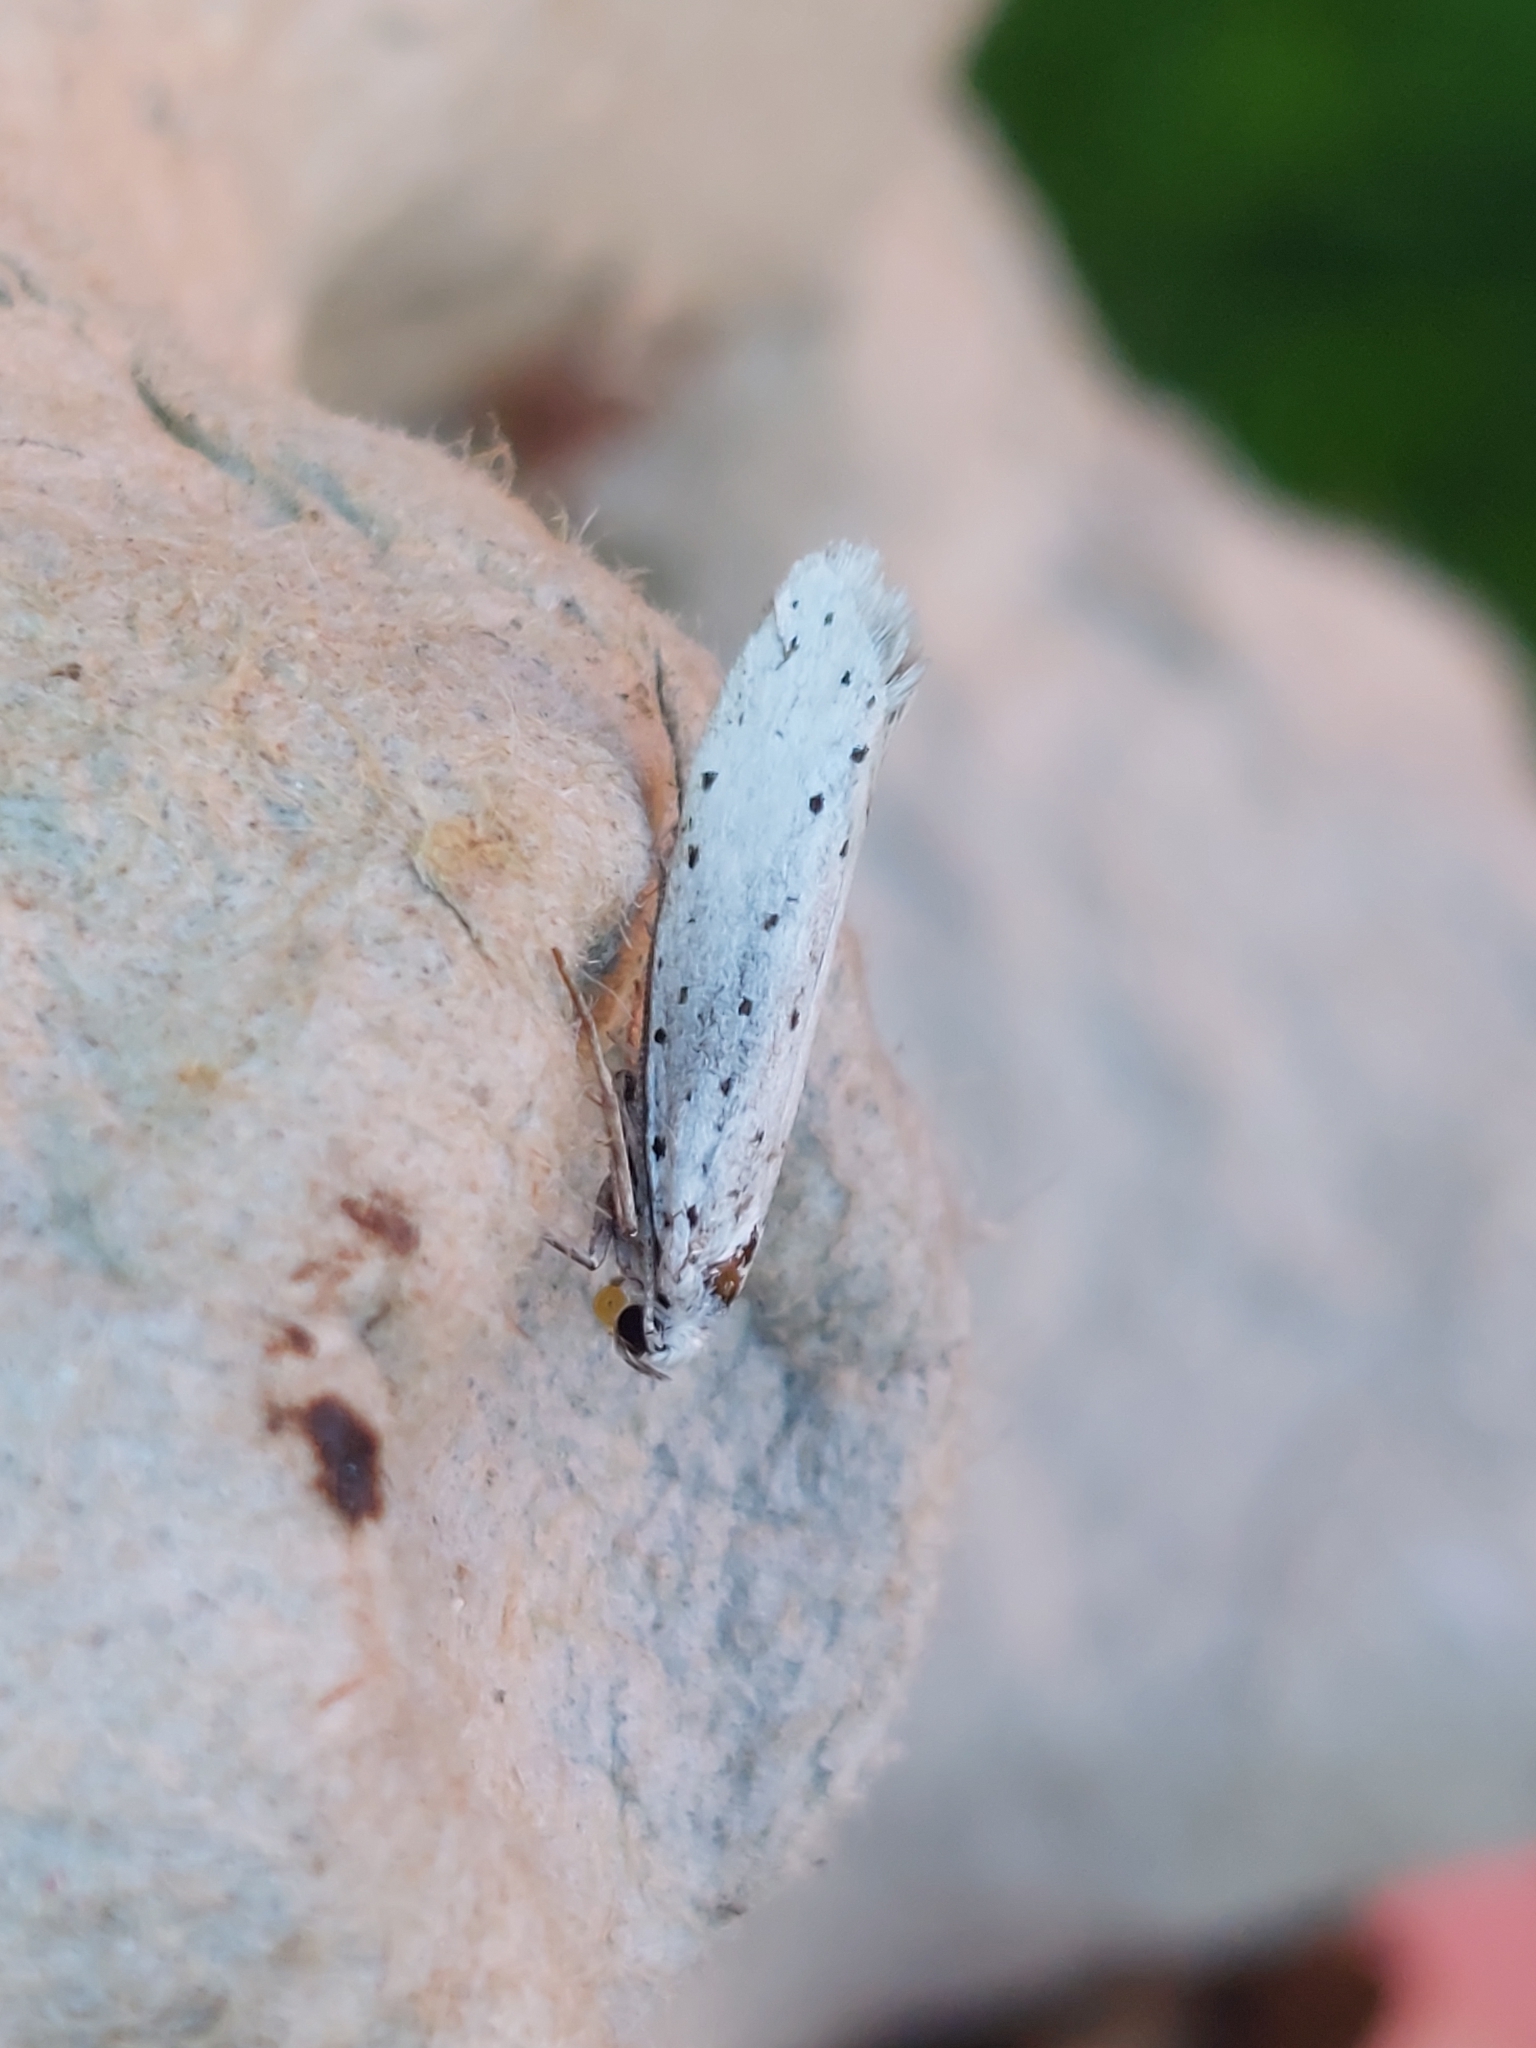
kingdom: Animalia
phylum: Arthropoda
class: Insecta
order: Lepidoptera
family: Yponomeutidae
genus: Yponomeuta
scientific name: Yponomeuta
